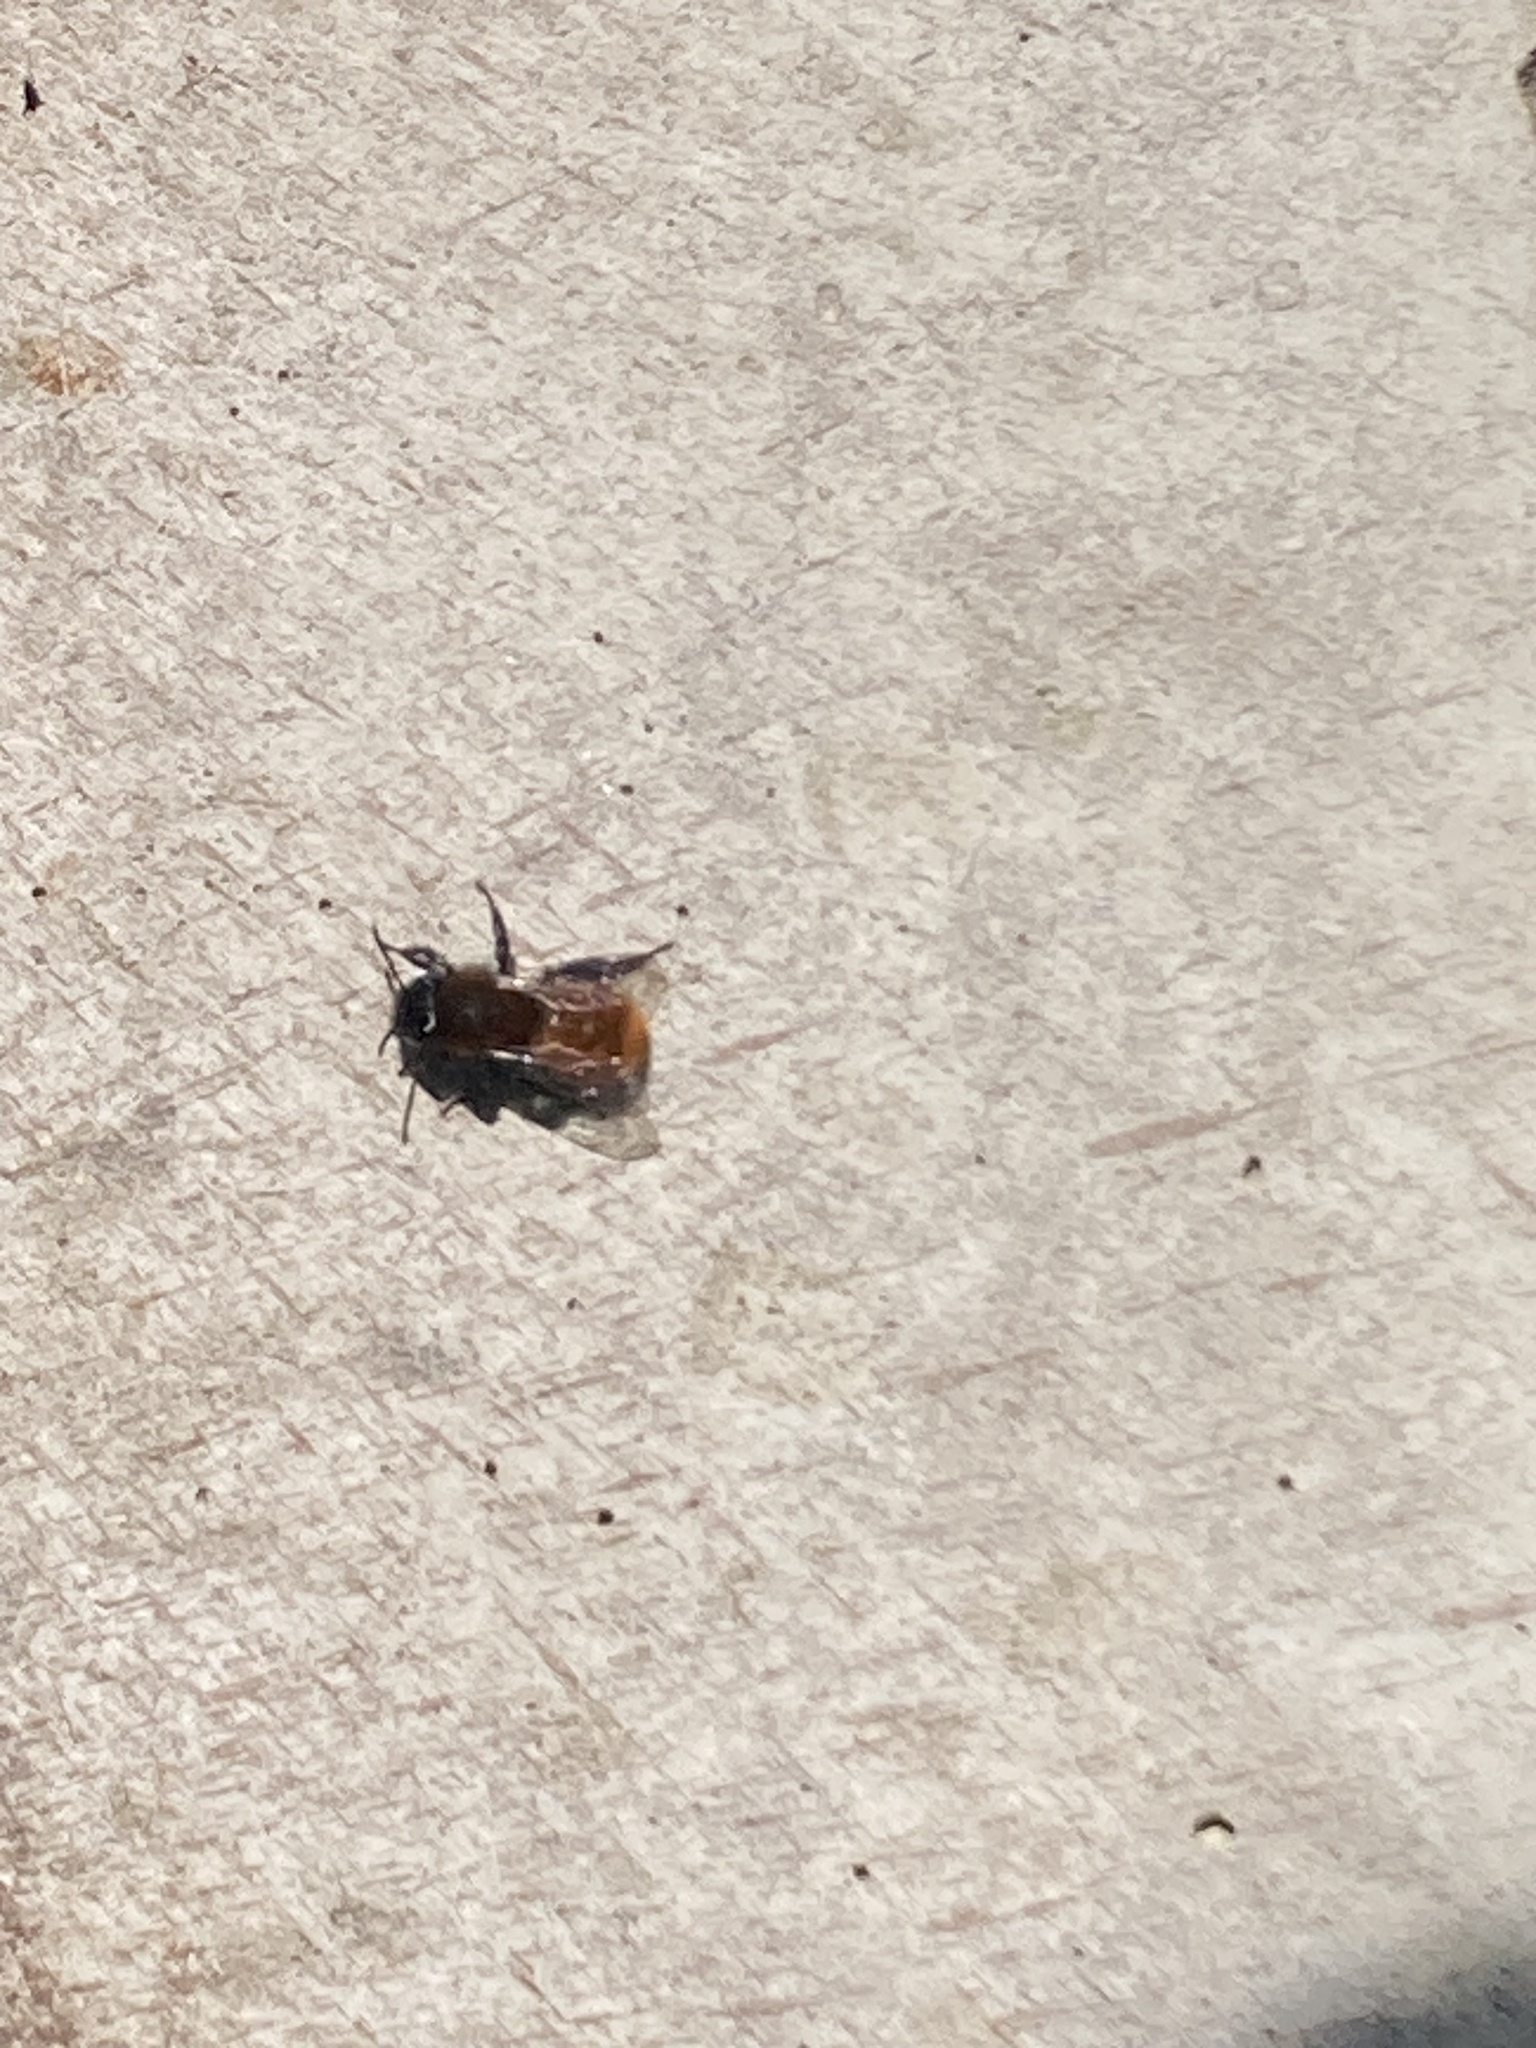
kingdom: Animalia
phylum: Arthropoda
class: Insecta
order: Hymenoptera
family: Andrenidae
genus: Andrena
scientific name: Andrena fulva
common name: Tawny mining bee
